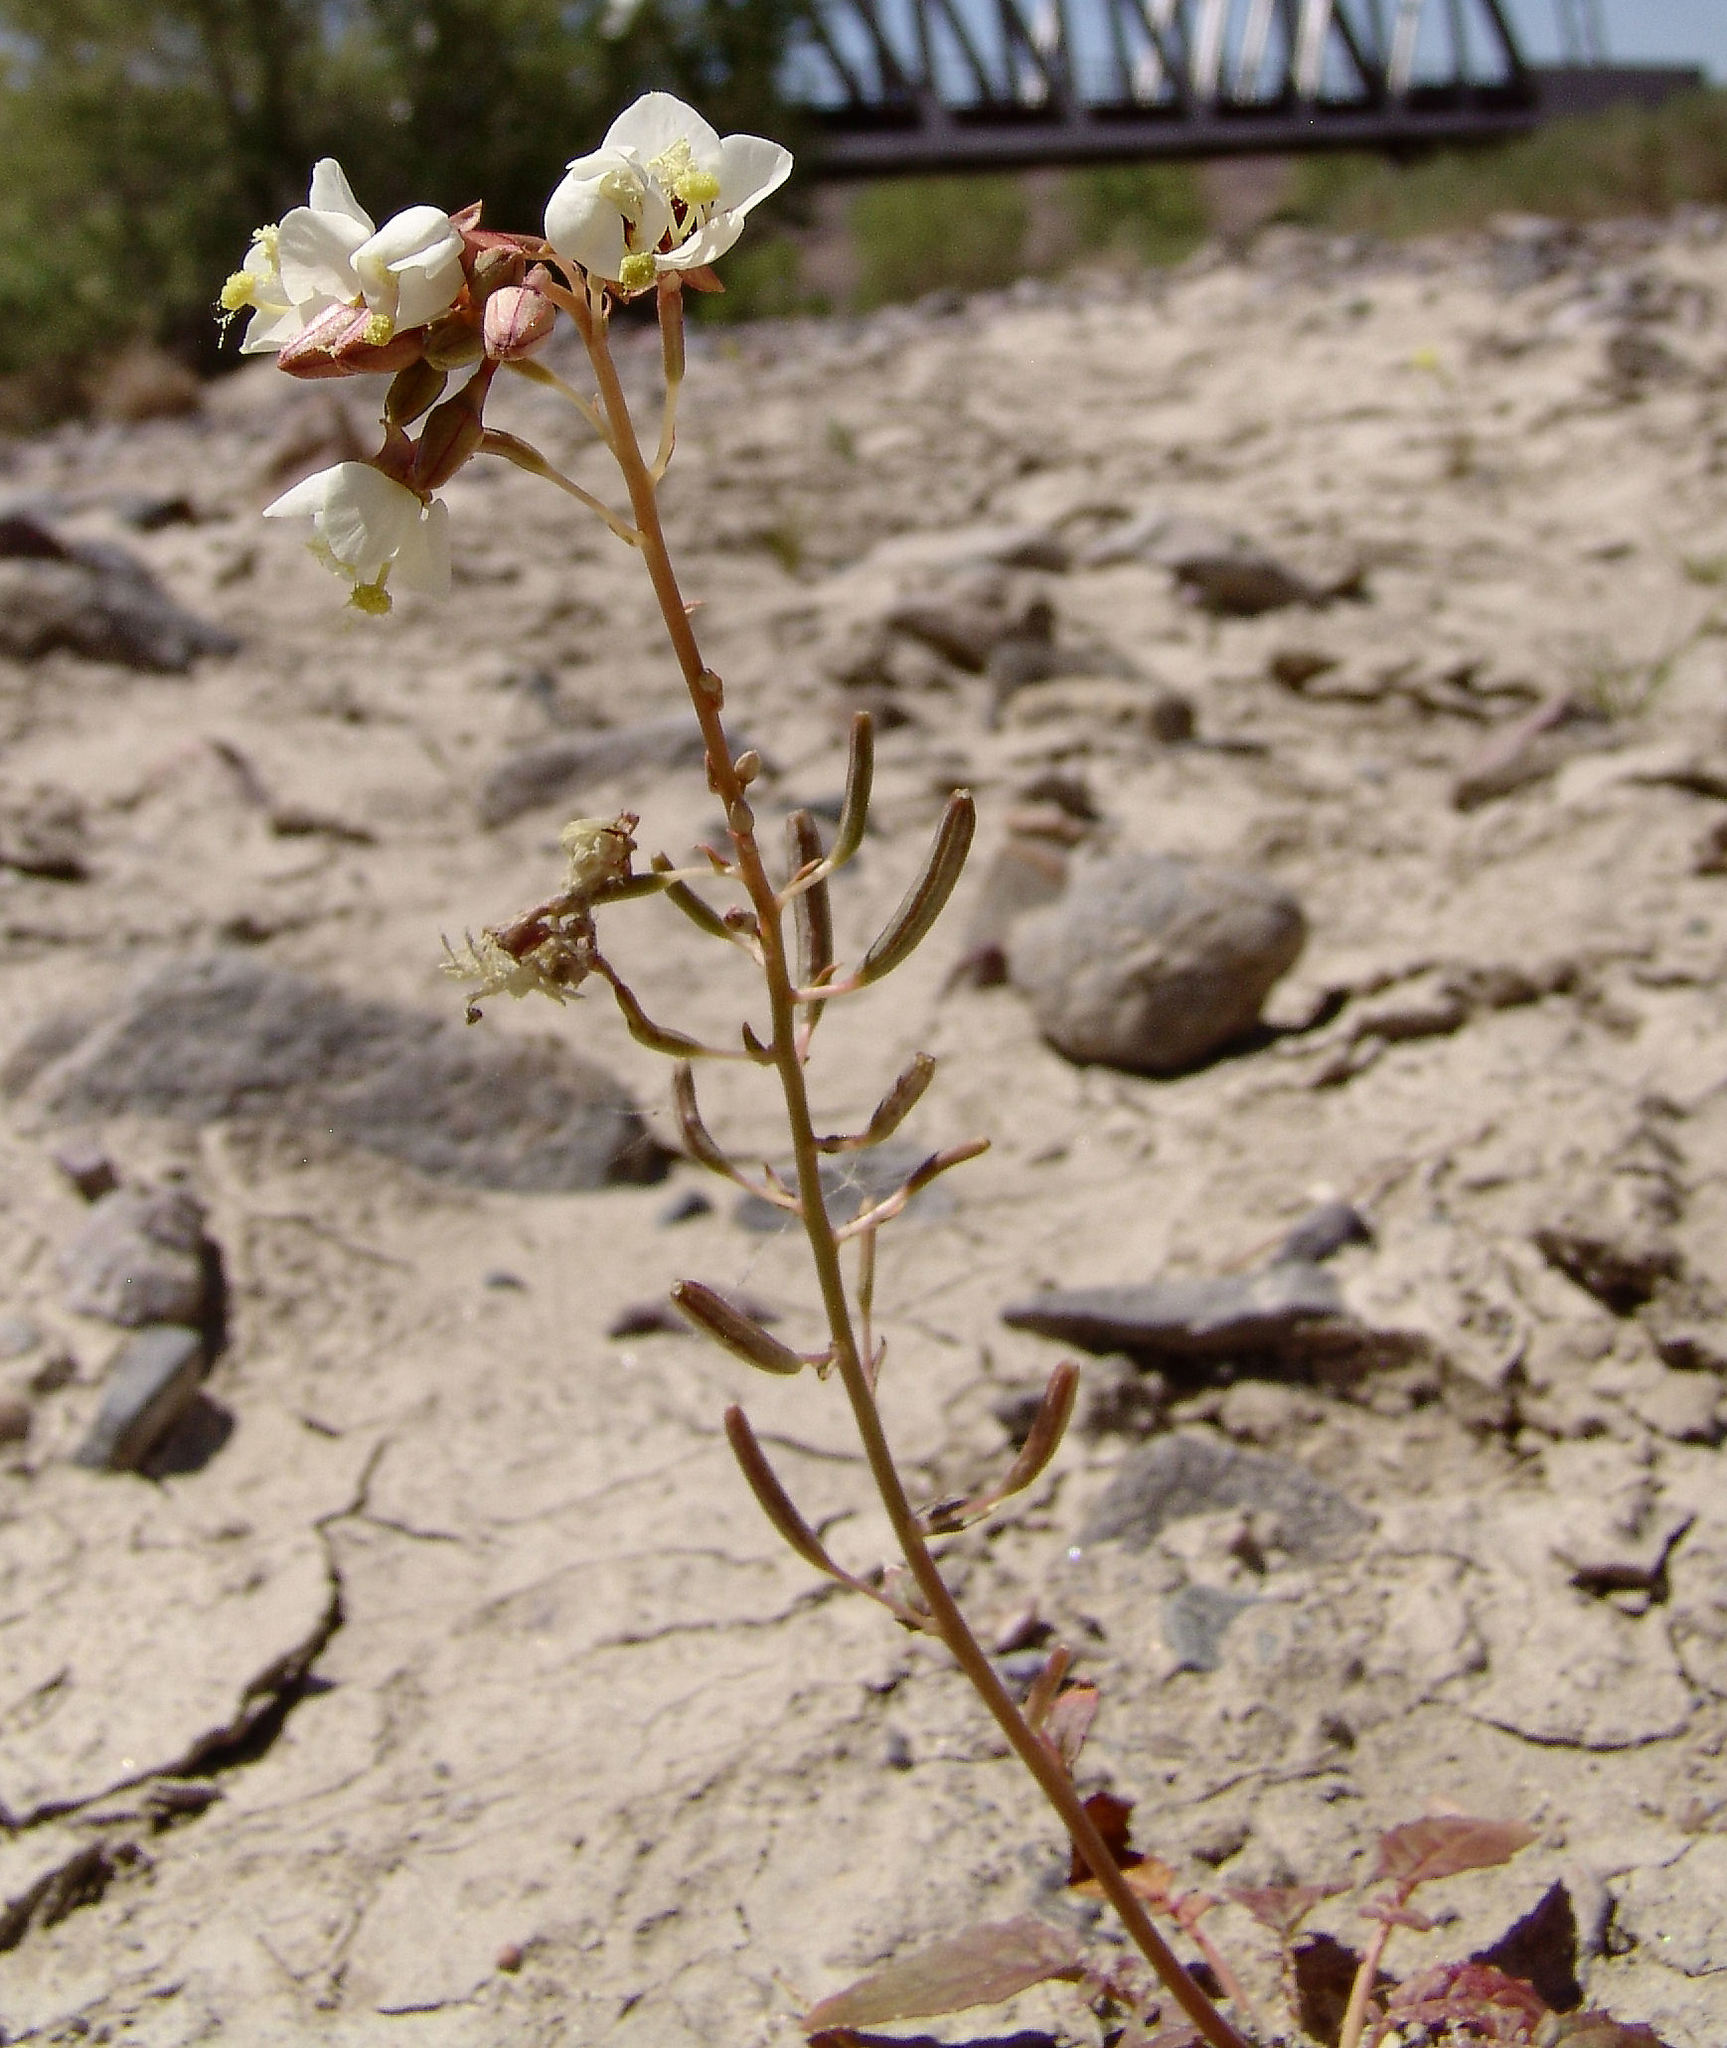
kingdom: Plantae
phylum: Tracheophyta
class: Magnoliopsida
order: Myrtales
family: Onagraceae
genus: Chylismia
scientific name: Chylismia claviformis
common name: Browneyes
